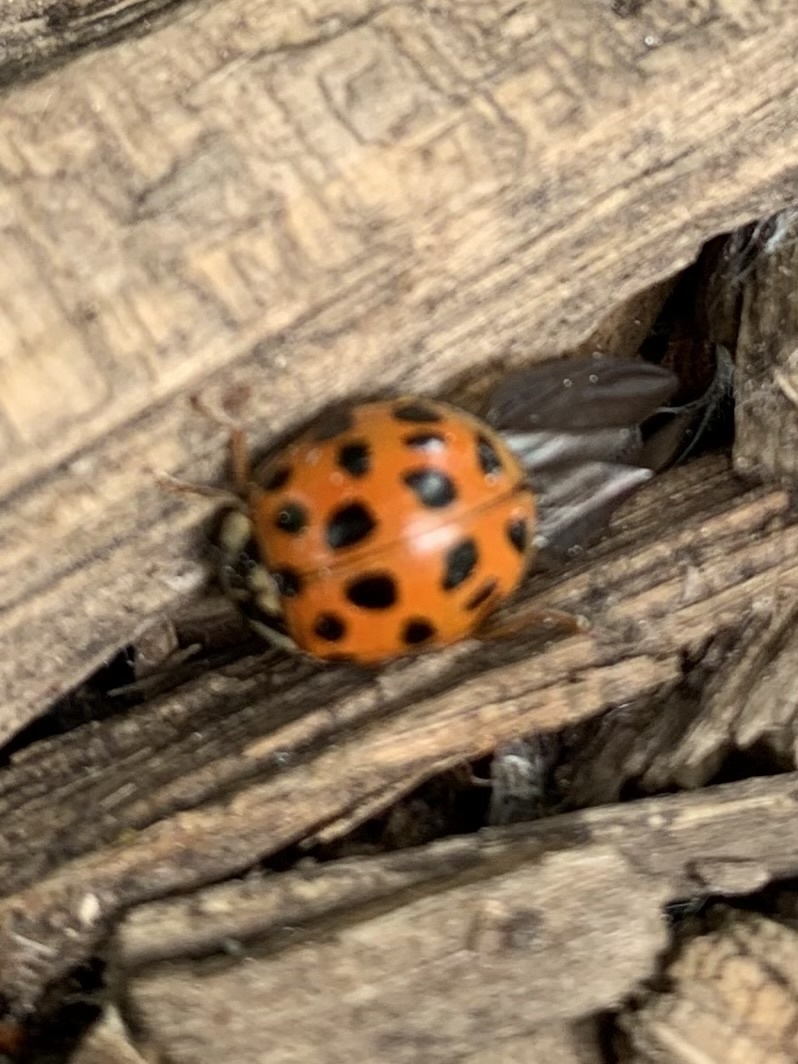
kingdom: Animalia
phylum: Arthropoda
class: Insecta
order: Coleoptera
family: Coccinellidae
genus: Harmonia
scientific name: Harmonia axyridis
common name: Harlequin ladybird
